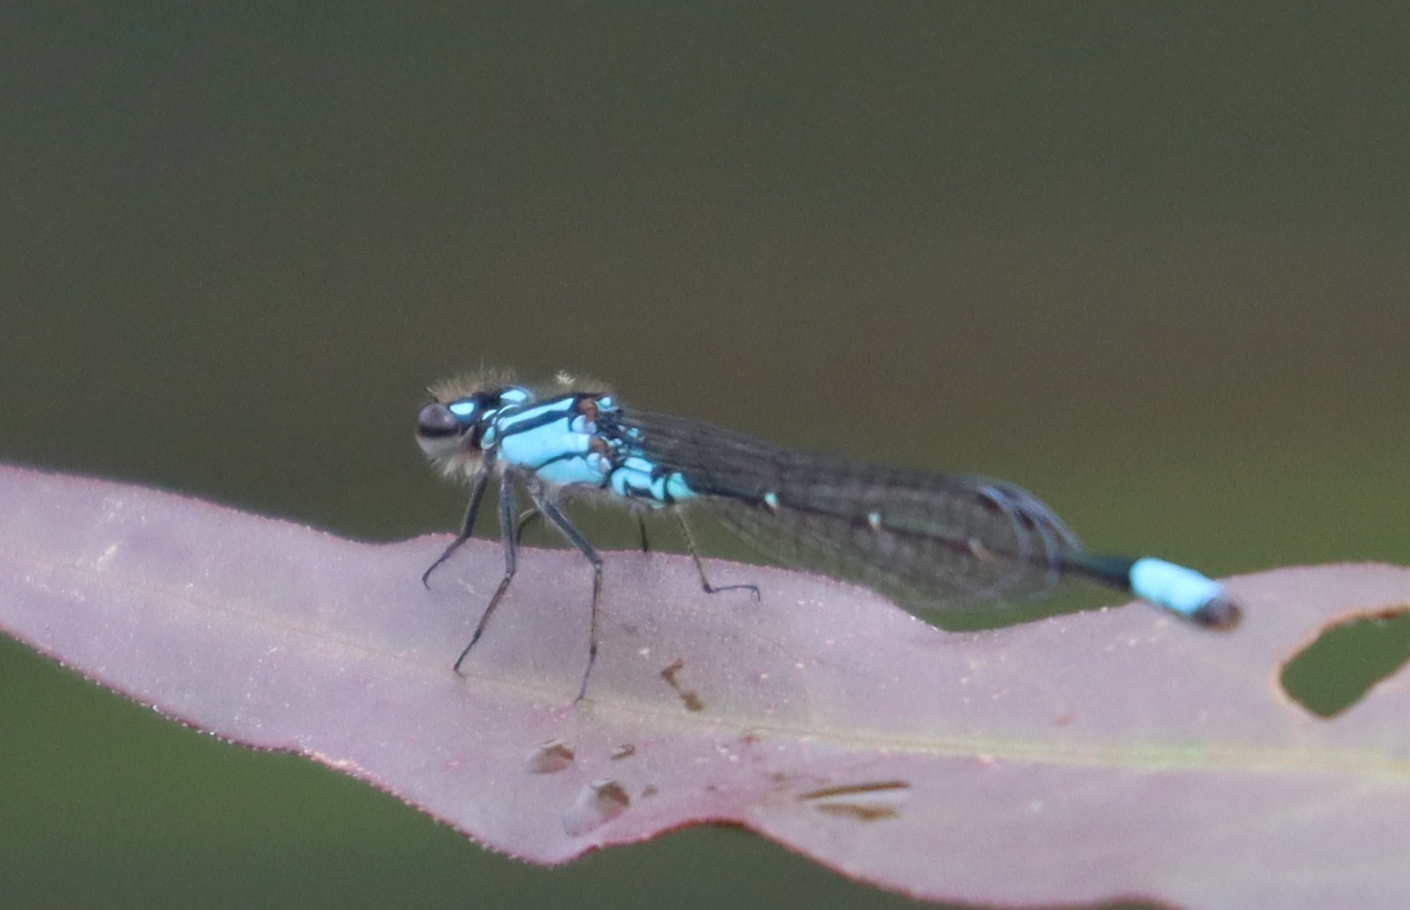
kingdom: Animalia
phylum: Arthropoda
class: Insecta
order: Odonata
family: Coenagrionidae
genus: Enallagma
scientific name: Enallagma geminatum
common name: Skimming bluet
